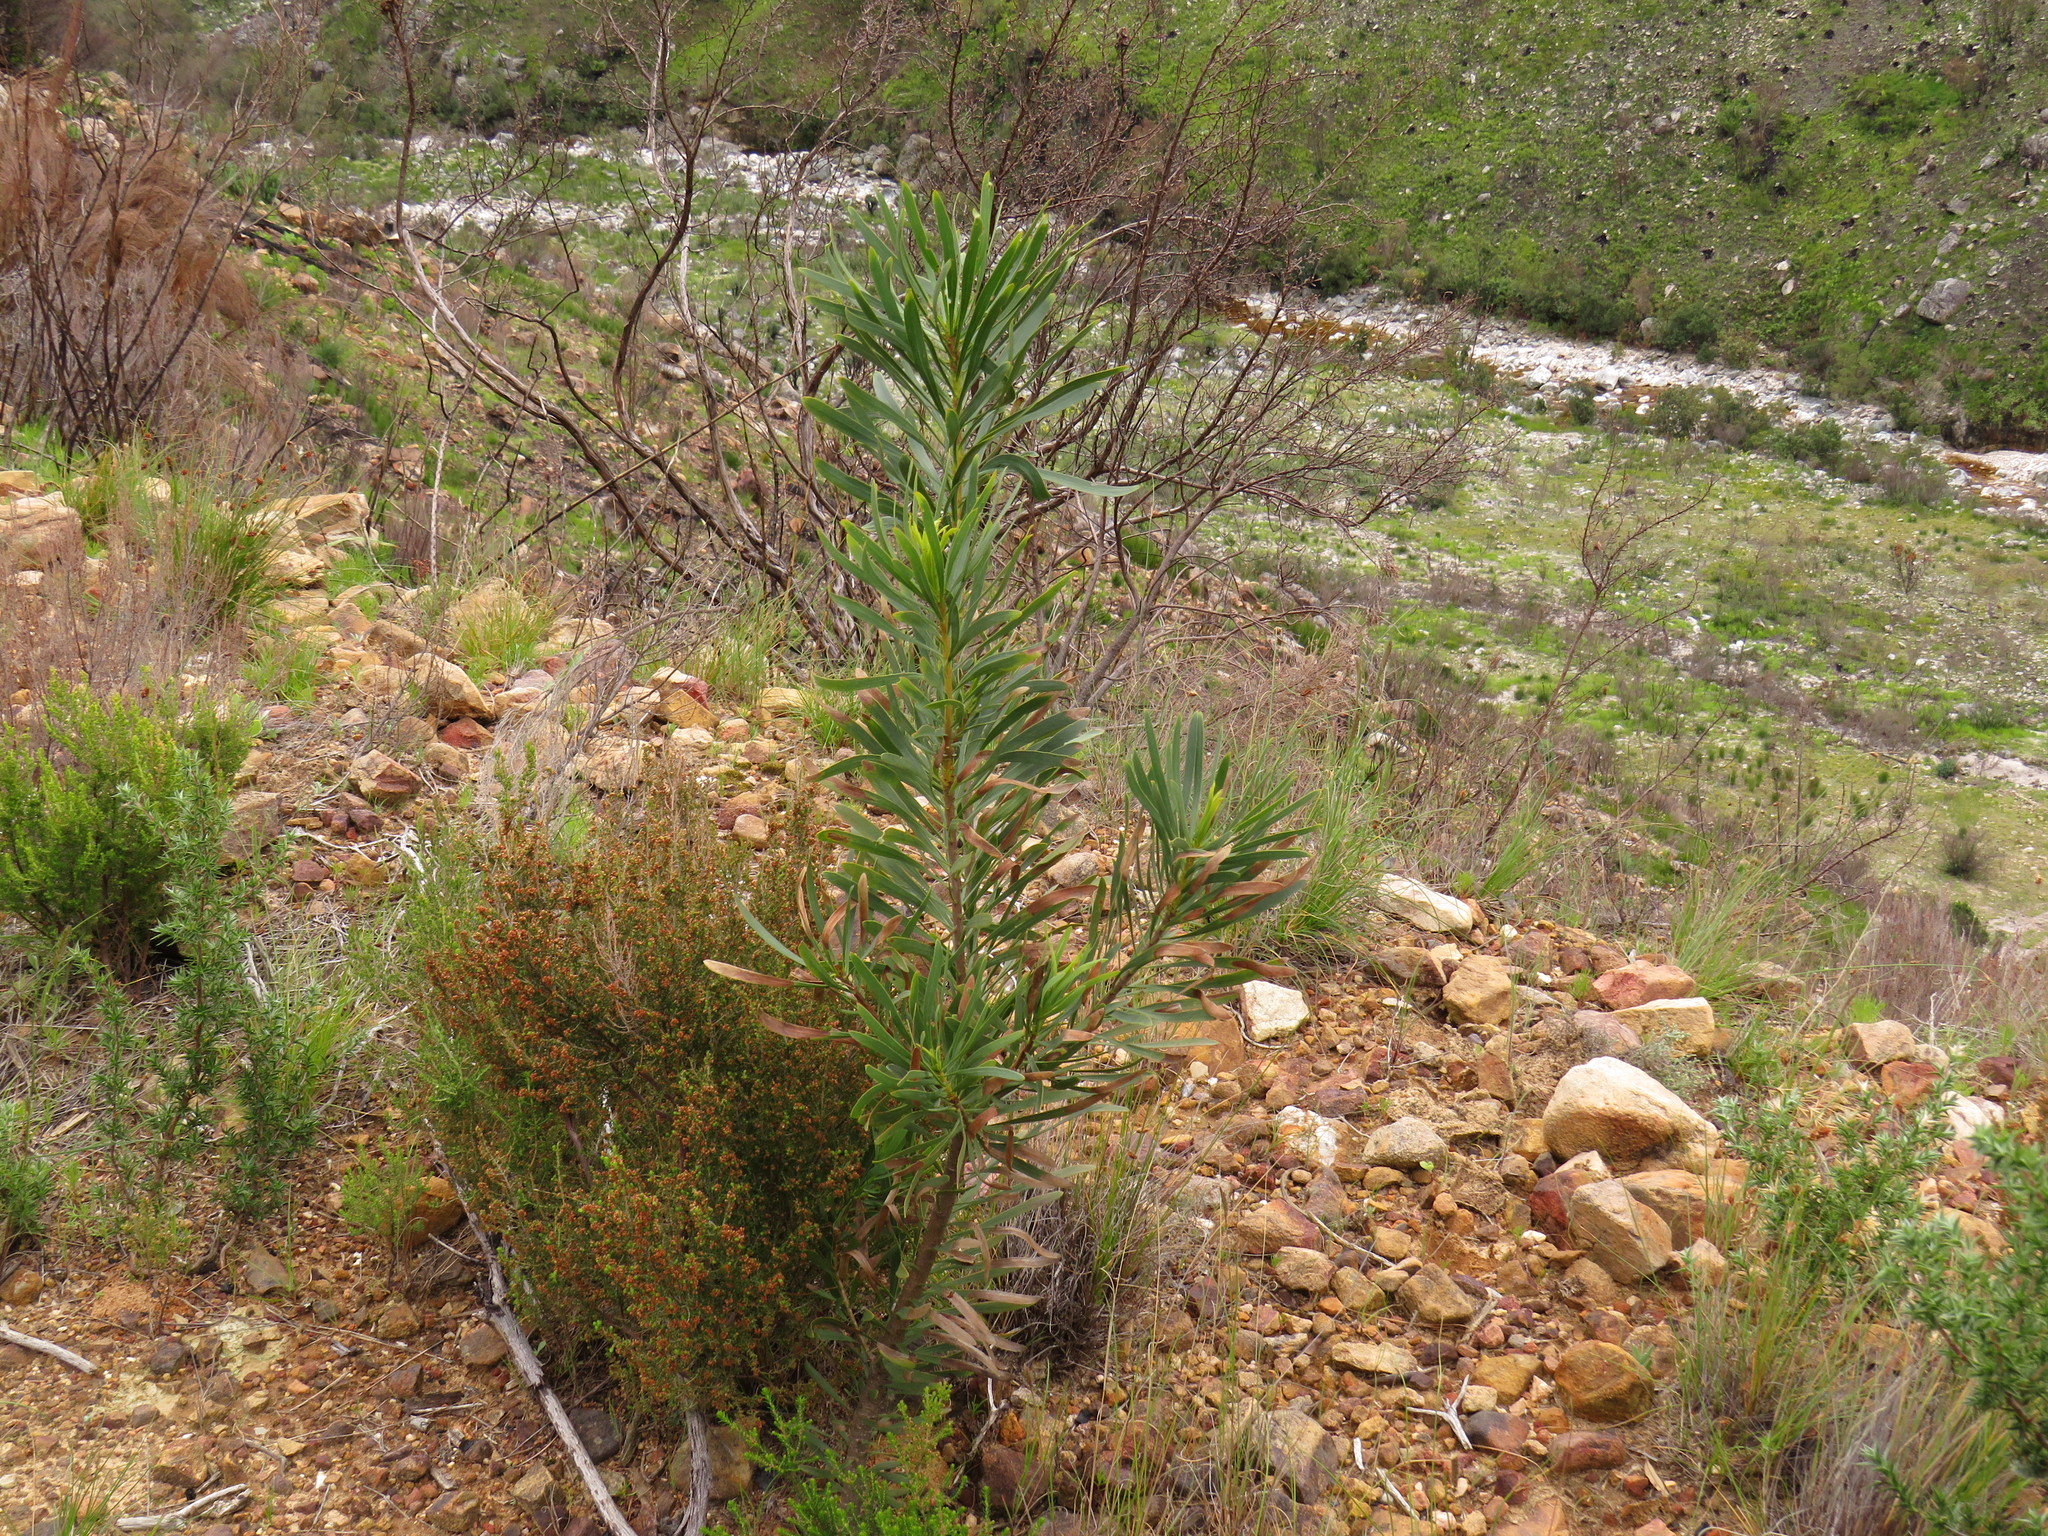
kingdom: Plantae
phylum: Tracheophyta
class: Magnoliopsida
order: Proteales
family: Proteaceae
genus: Protea
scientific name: Protea repens
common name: Sugarbush
